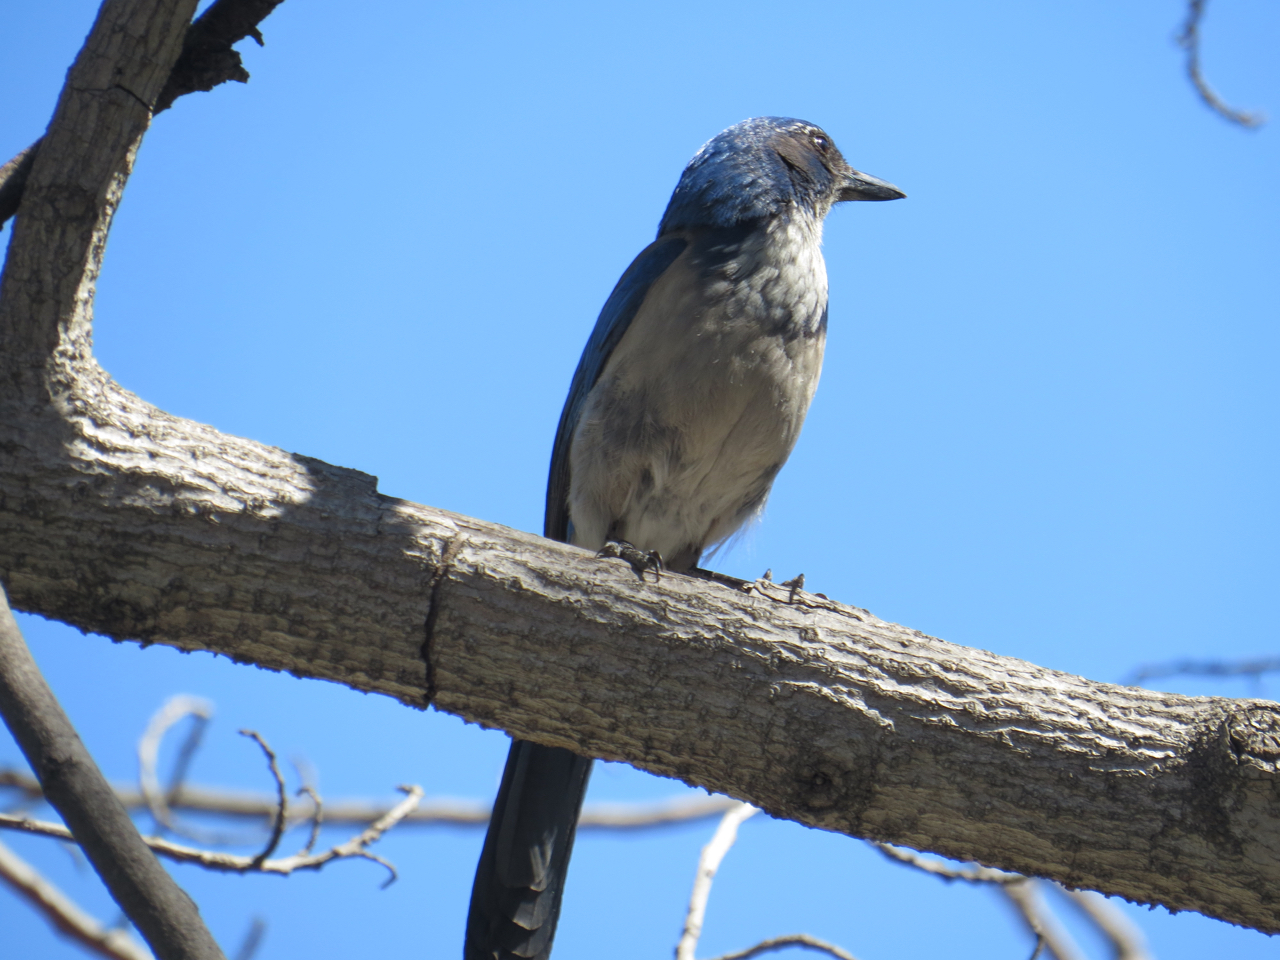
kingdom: Animalia
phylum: Chordata
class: Aves
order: Passeriformes
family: Corvidae
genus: Aphelocoma
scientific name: Aphelocoma californica
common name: California scrub-jay
